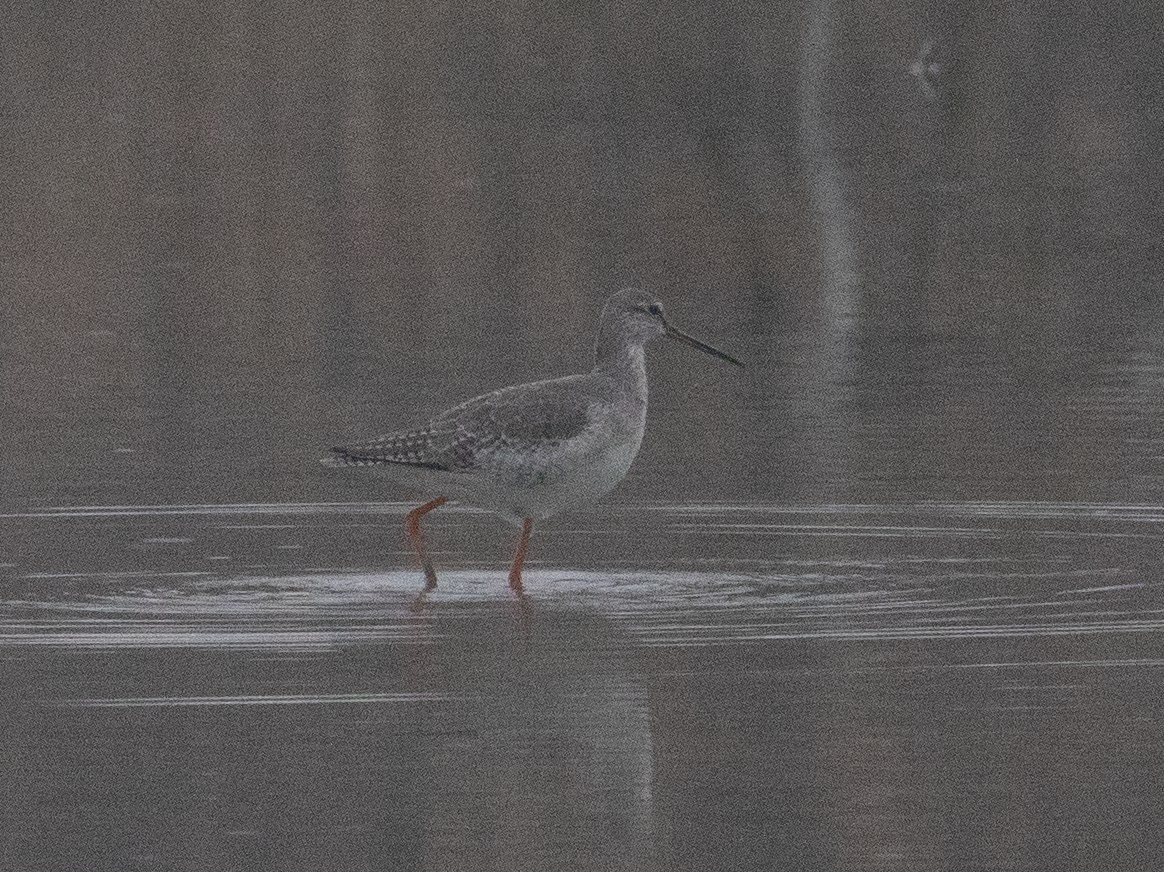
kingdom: Animalia
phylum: Chordata
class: Aves
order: Charadriiformes
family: Scolopacidae
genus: Tringa
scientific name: Tringa erythropus
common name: Spotted redshank
